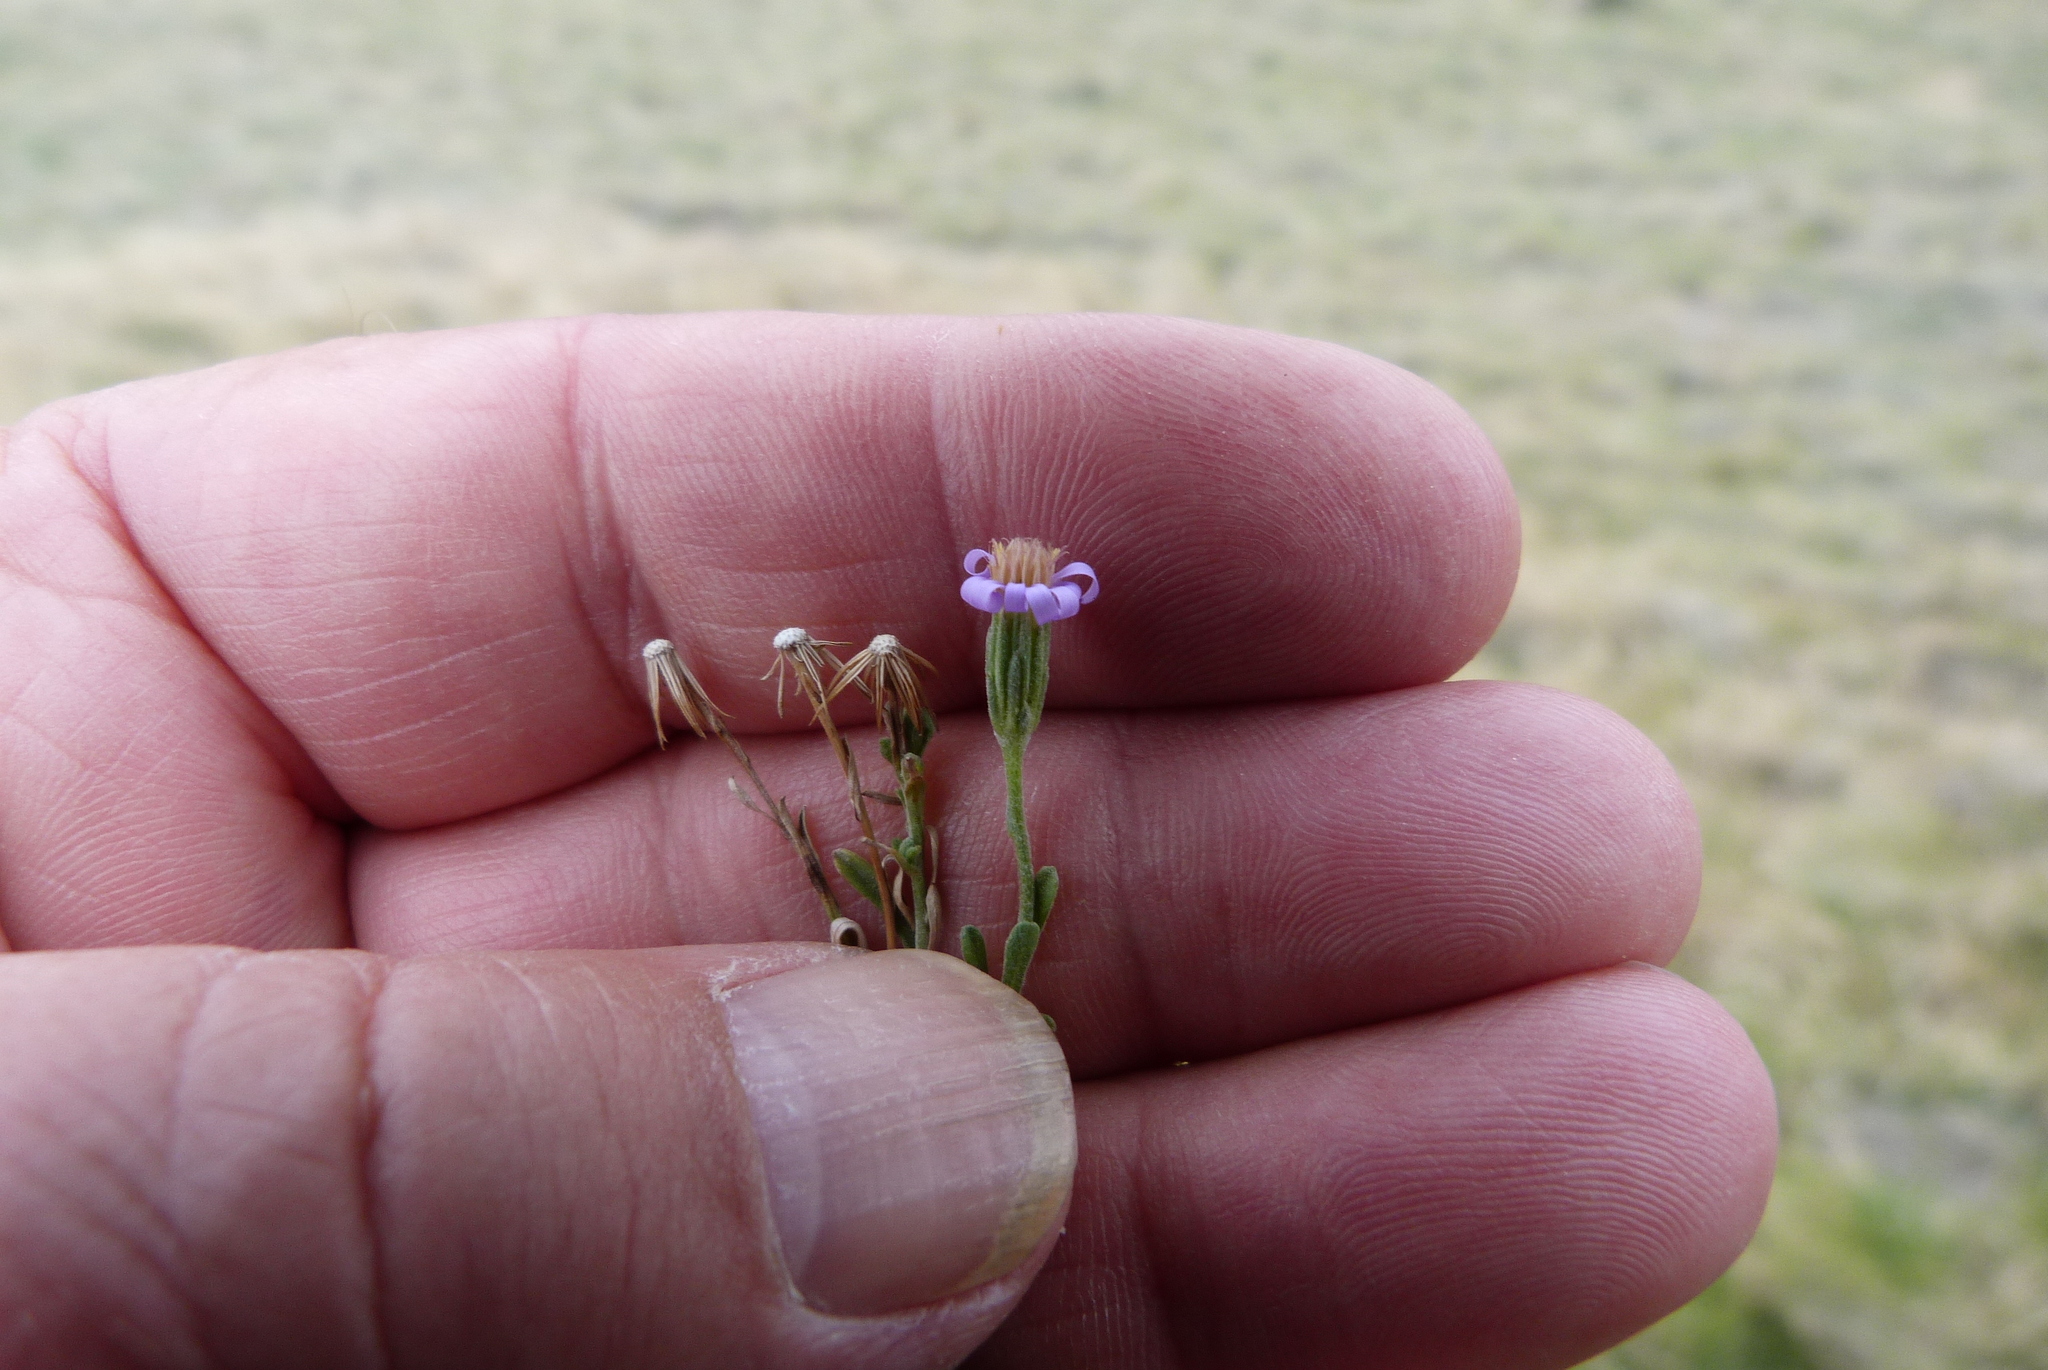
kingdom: Plantae
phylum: Tracheophyta
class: Magnoliopsida
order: Asterales
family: Asteraceae
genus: Vittadinia
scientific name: Vittadinia gracilis
